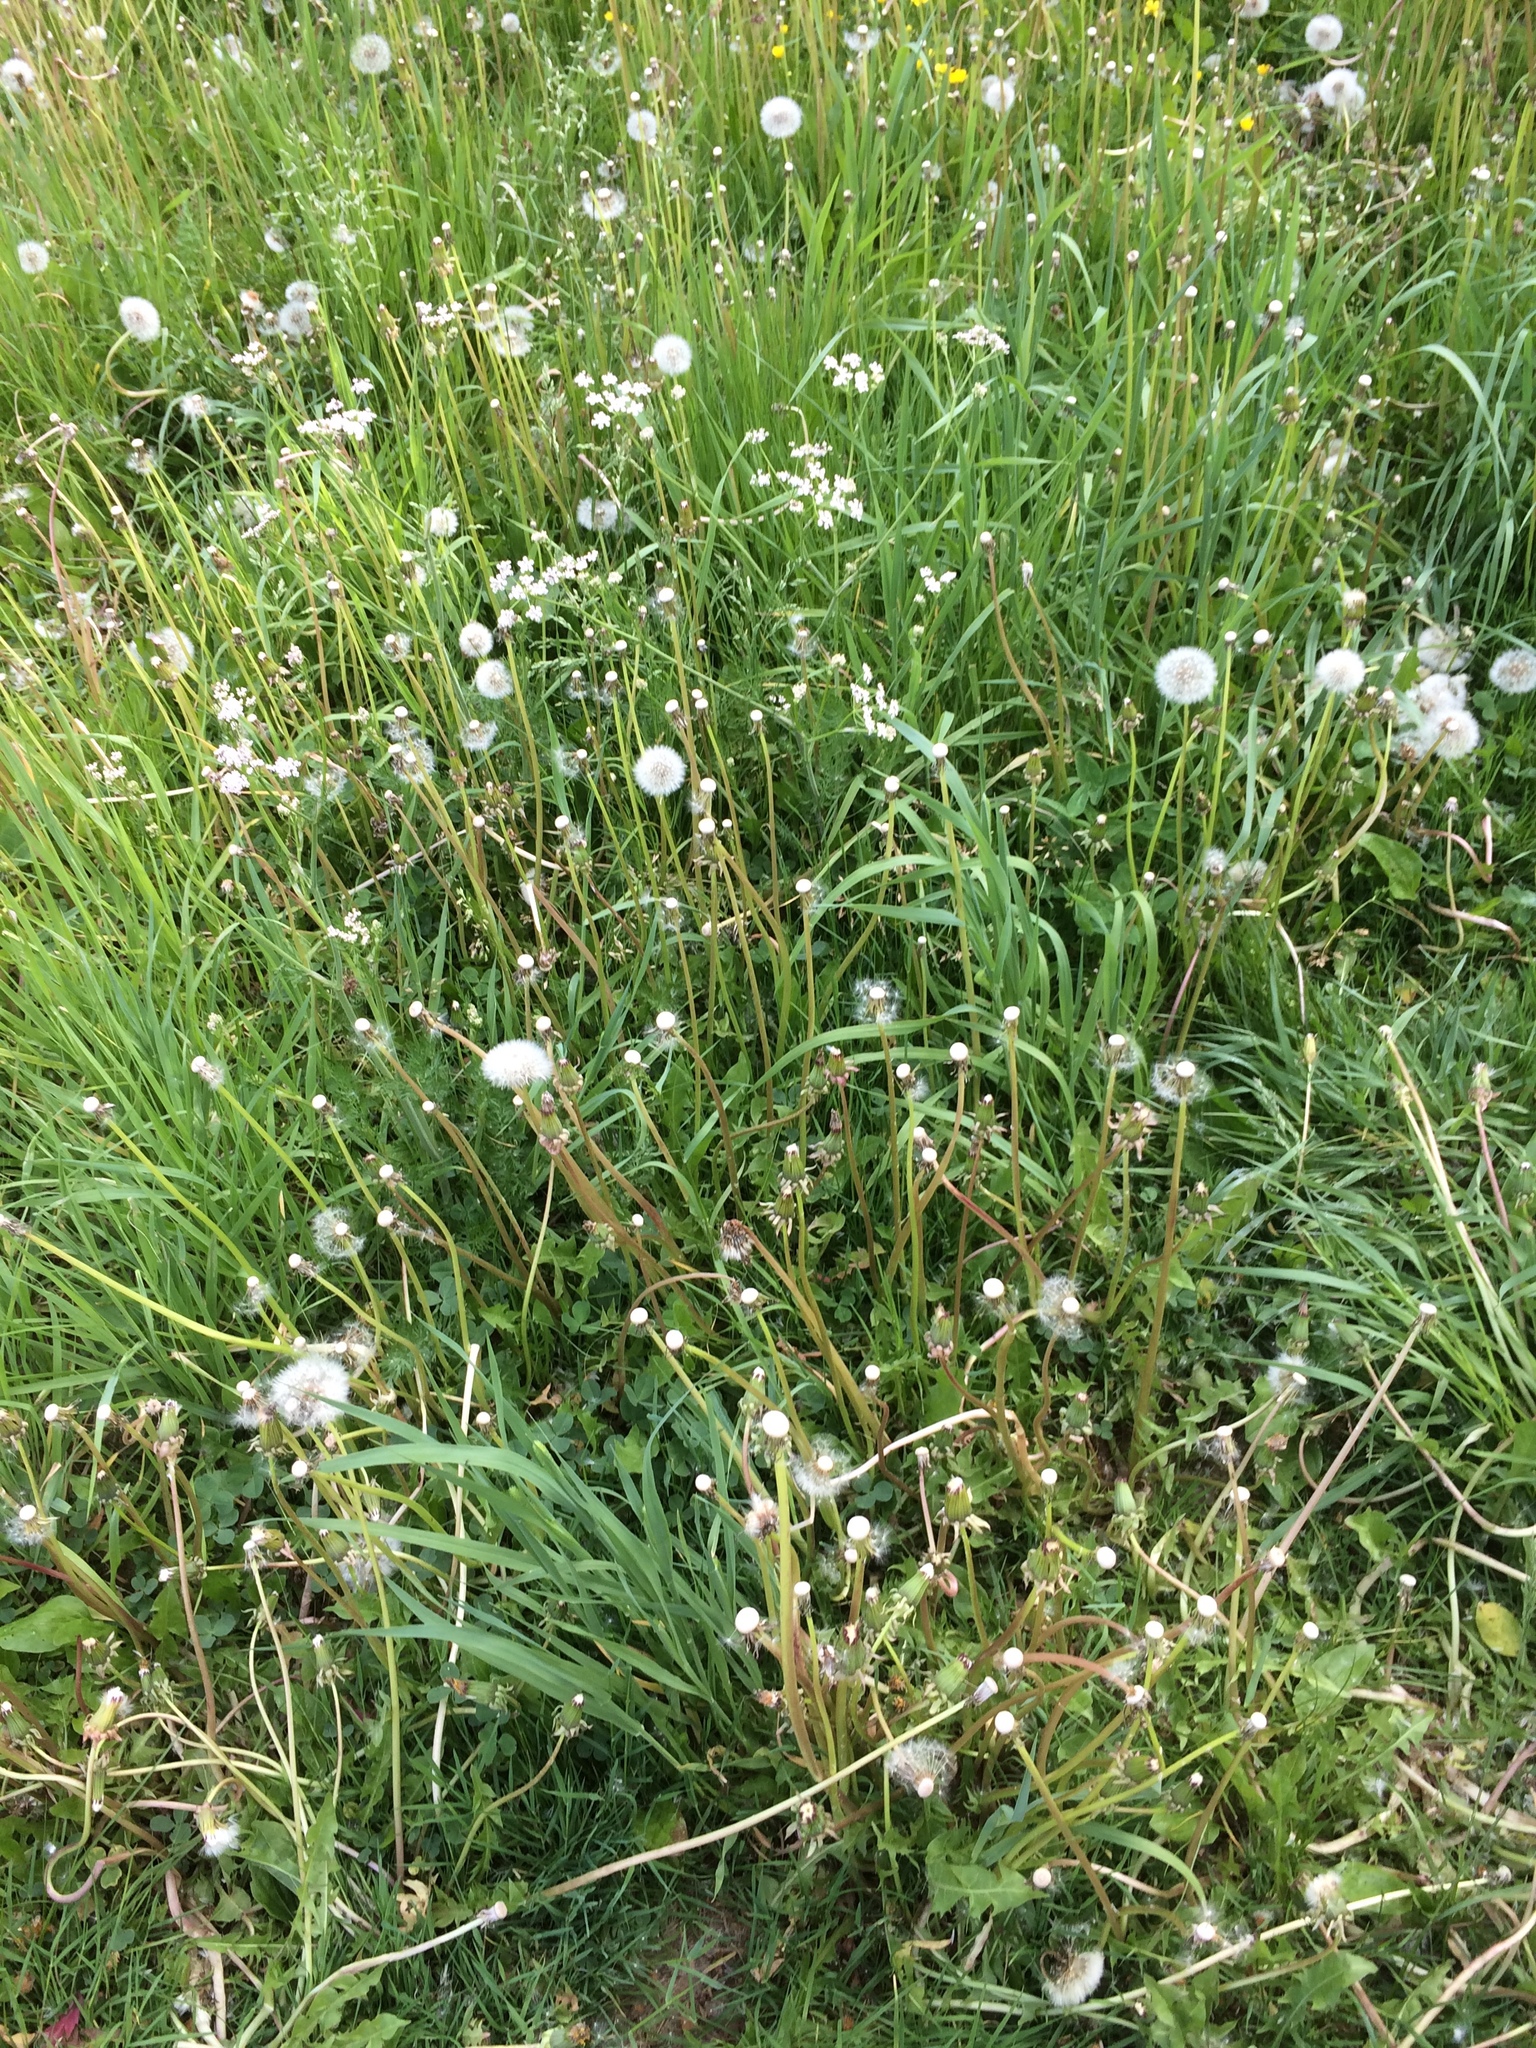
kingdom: Plantae
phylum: Tracheophyta
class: Magnoliopsida
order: Asterales
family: Asteraceae
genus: Taraxacum
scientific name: Taraxacum officinale
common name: Common dandelion
